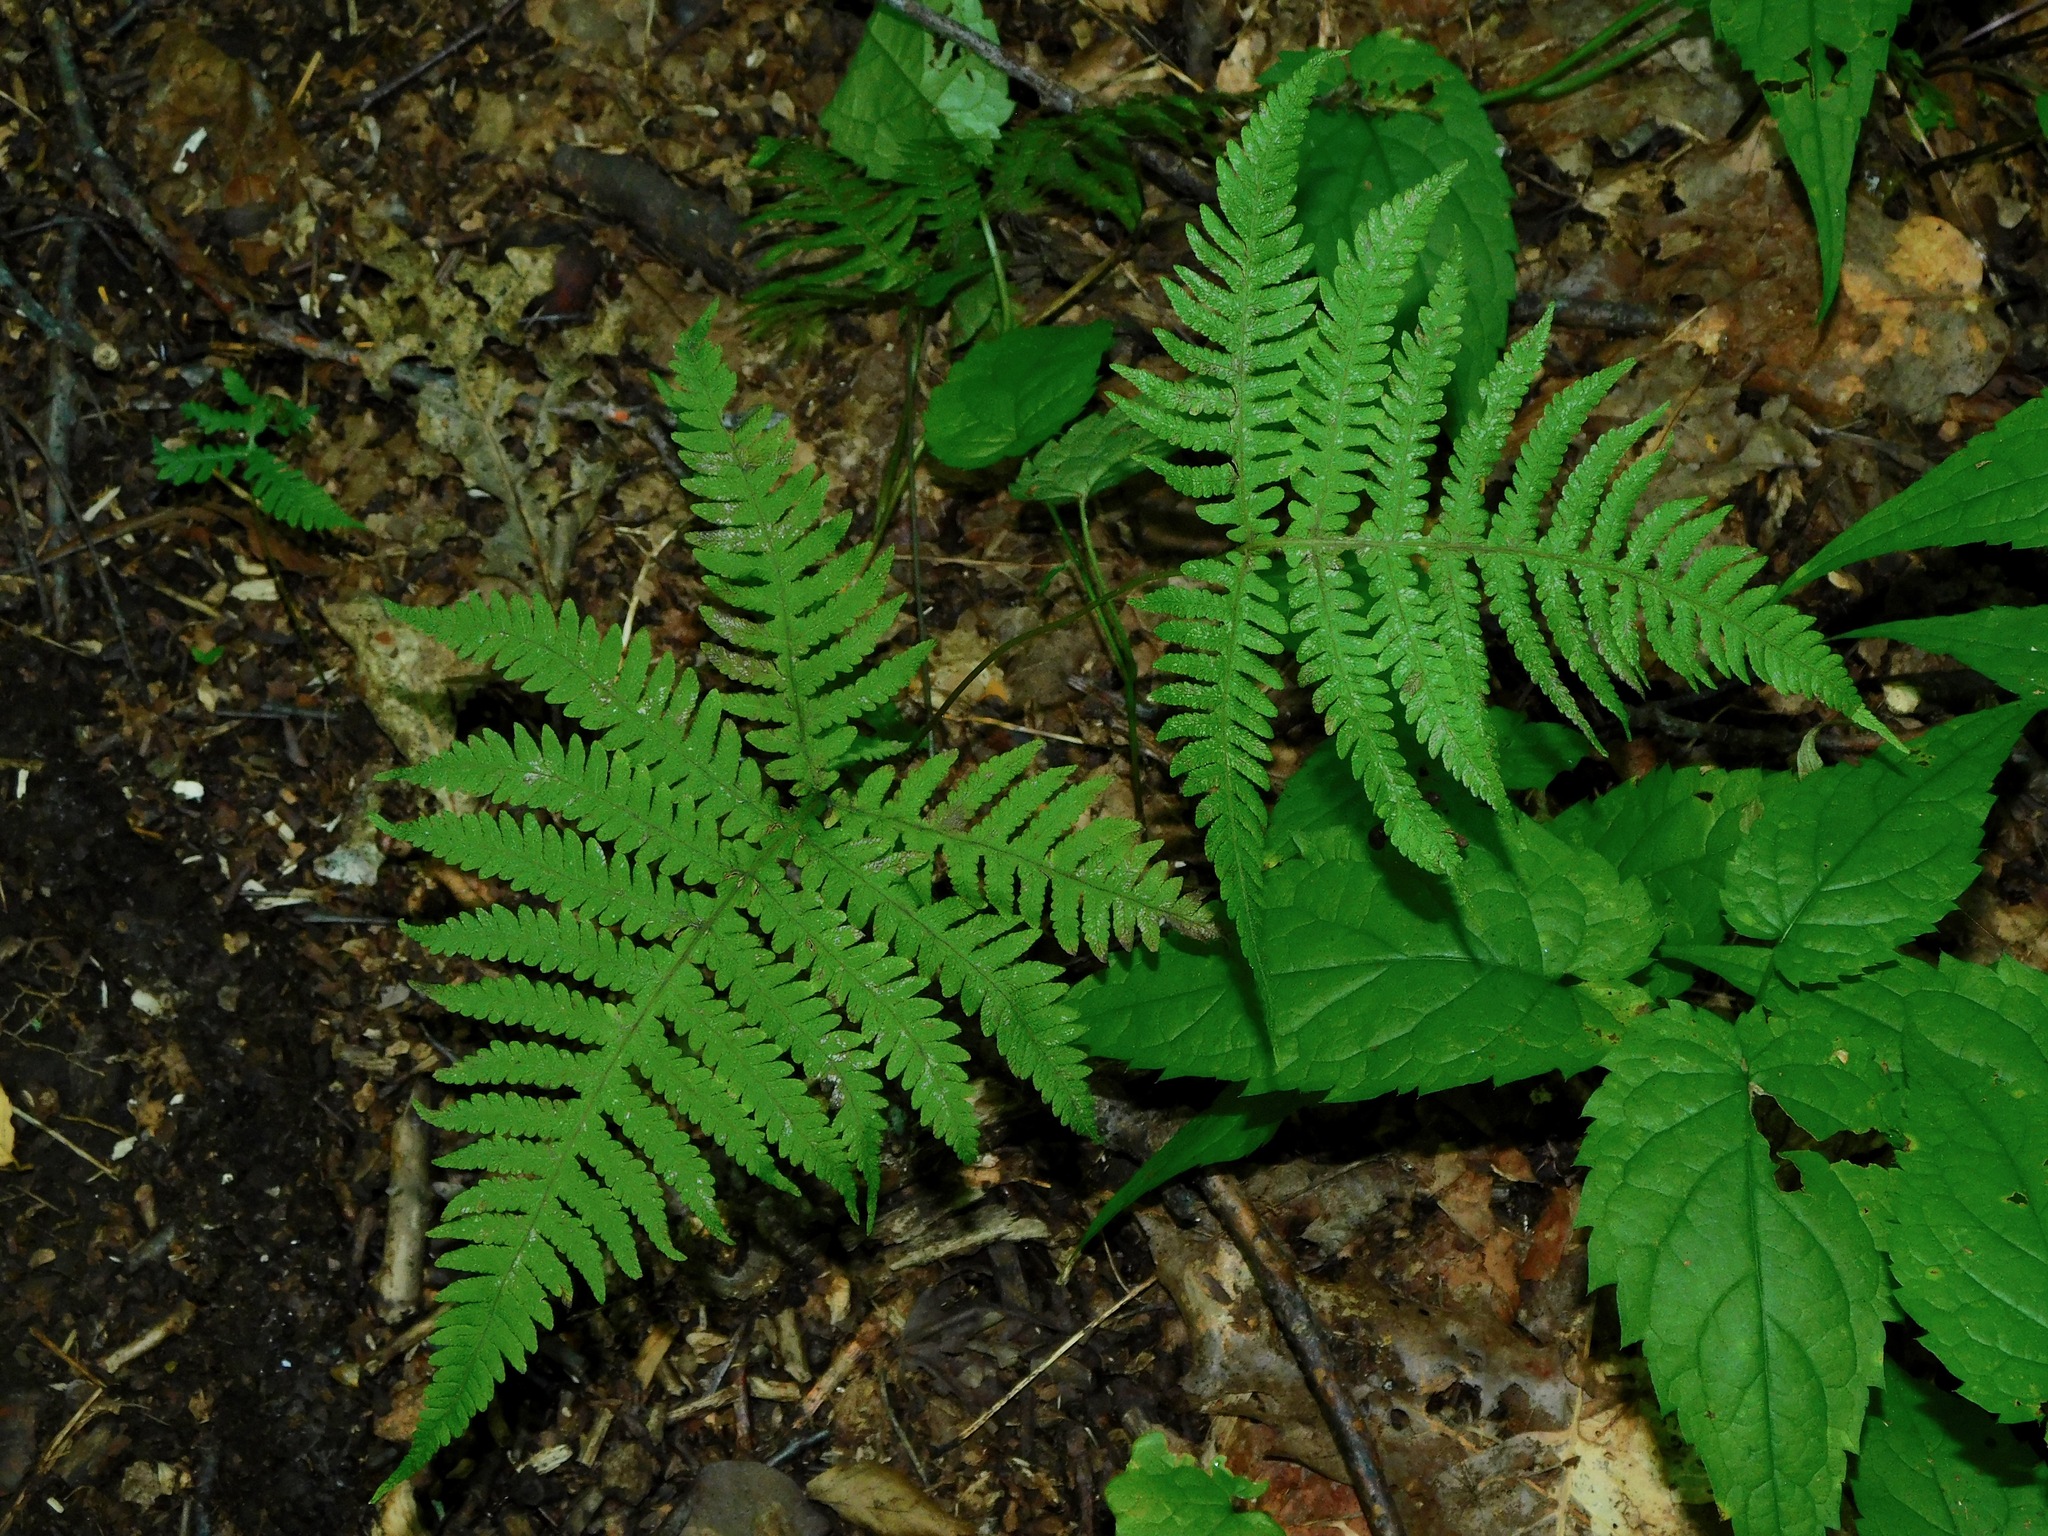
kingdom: Plantae
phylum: Tracheophyta
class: Polypodiopsida
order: Polypodiales
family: Thelypteridaceae
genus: Phegopteris
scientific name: Phegopteris hexagonoptera
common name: Broad beech fern
